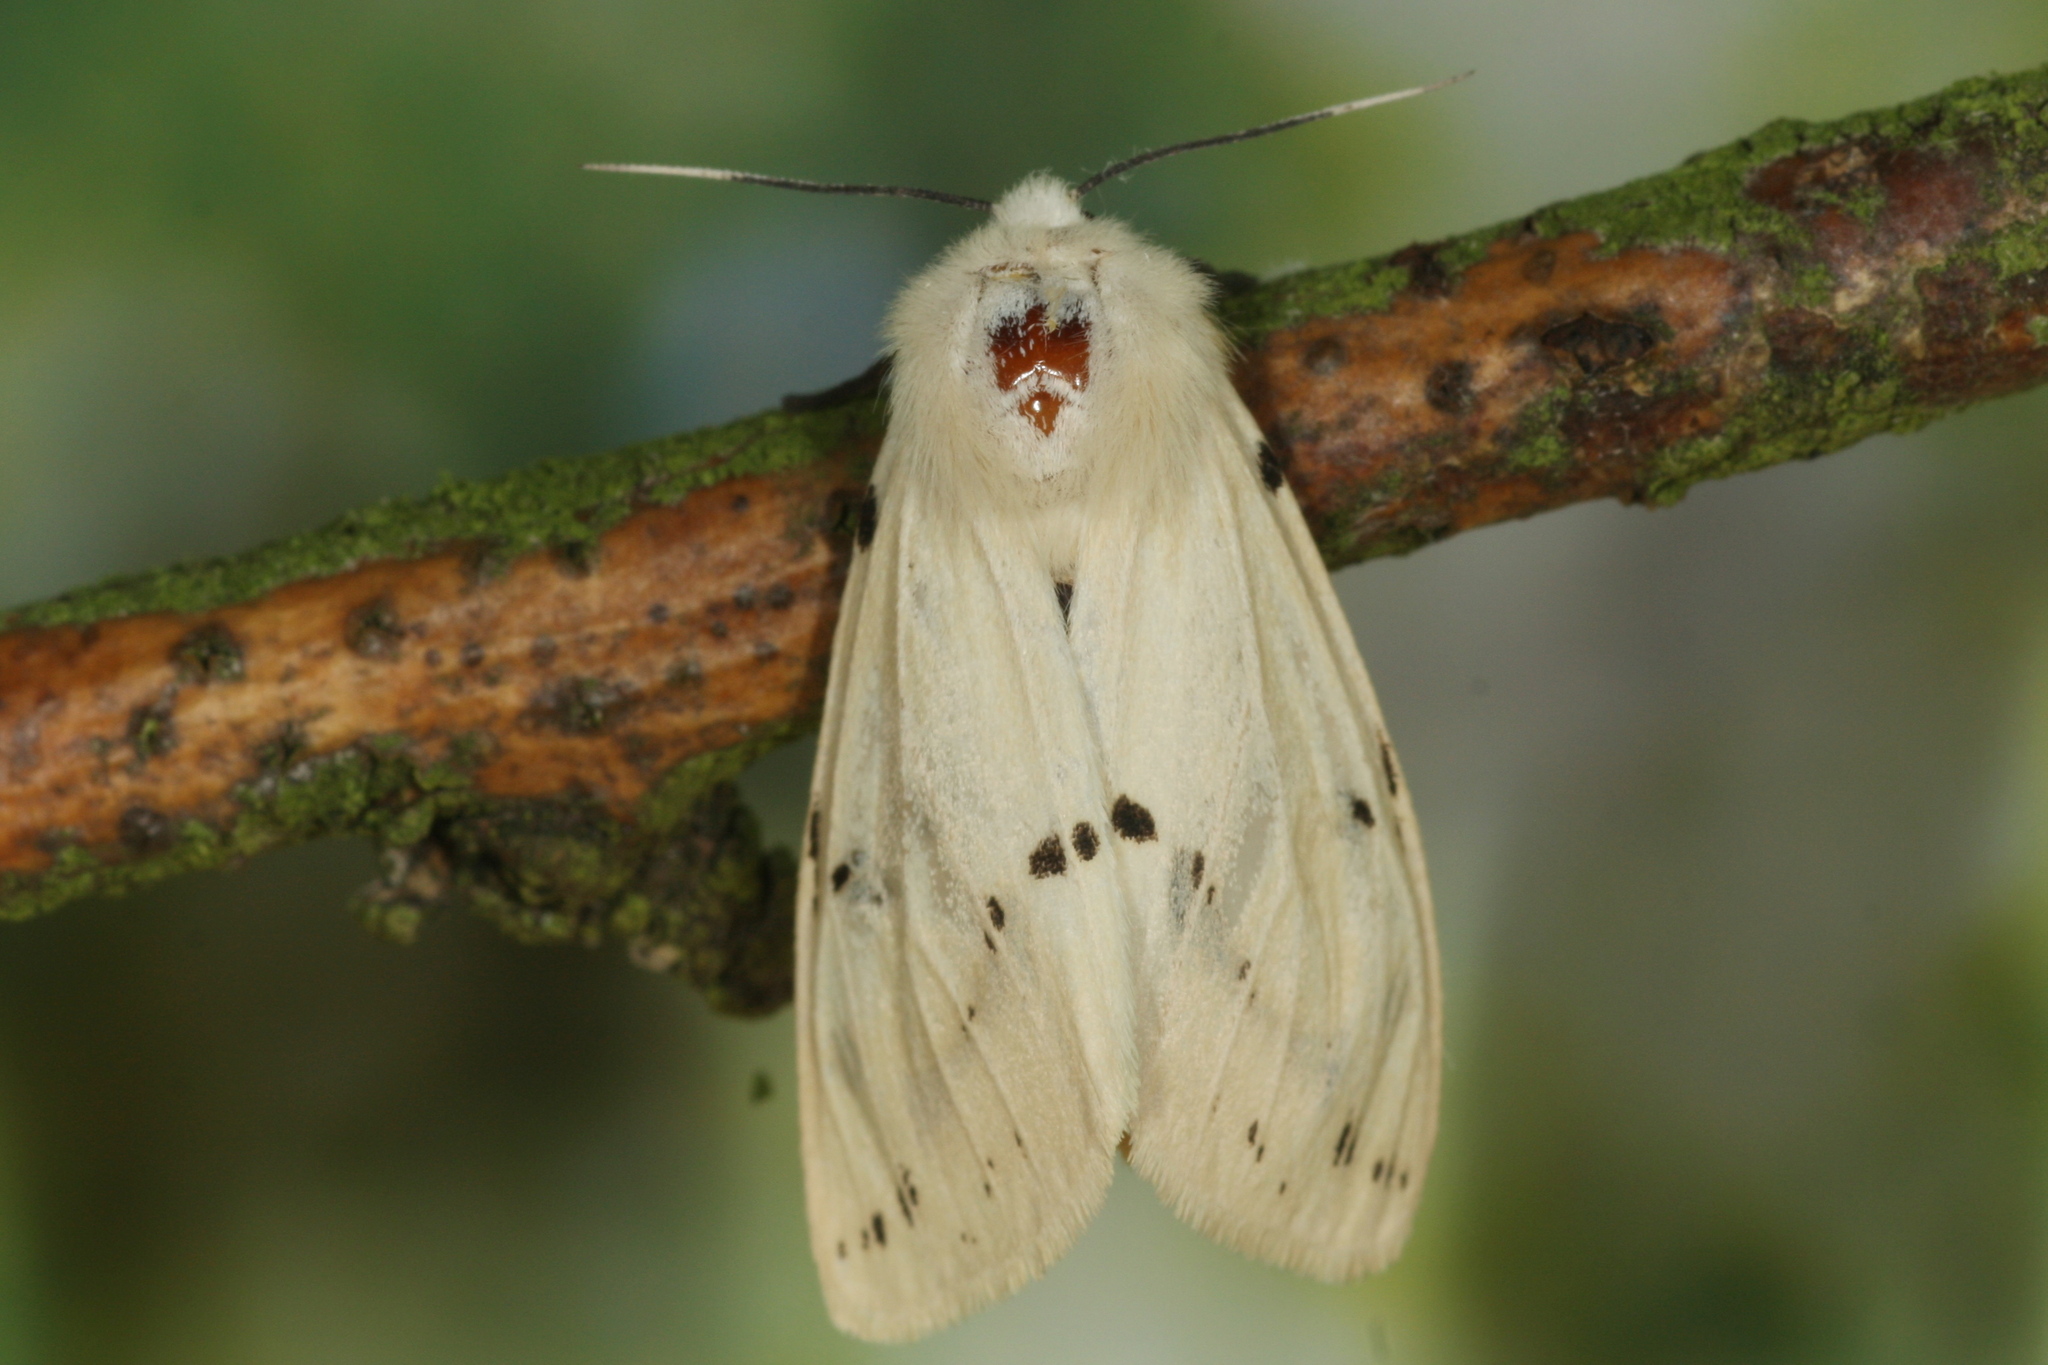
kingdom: Animalia
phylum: Arthropoda
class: Insecta
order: Lepidoptera
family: Erebidae
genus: Spilarctia
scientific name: Spilarctia lutea
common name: Buff ermine
